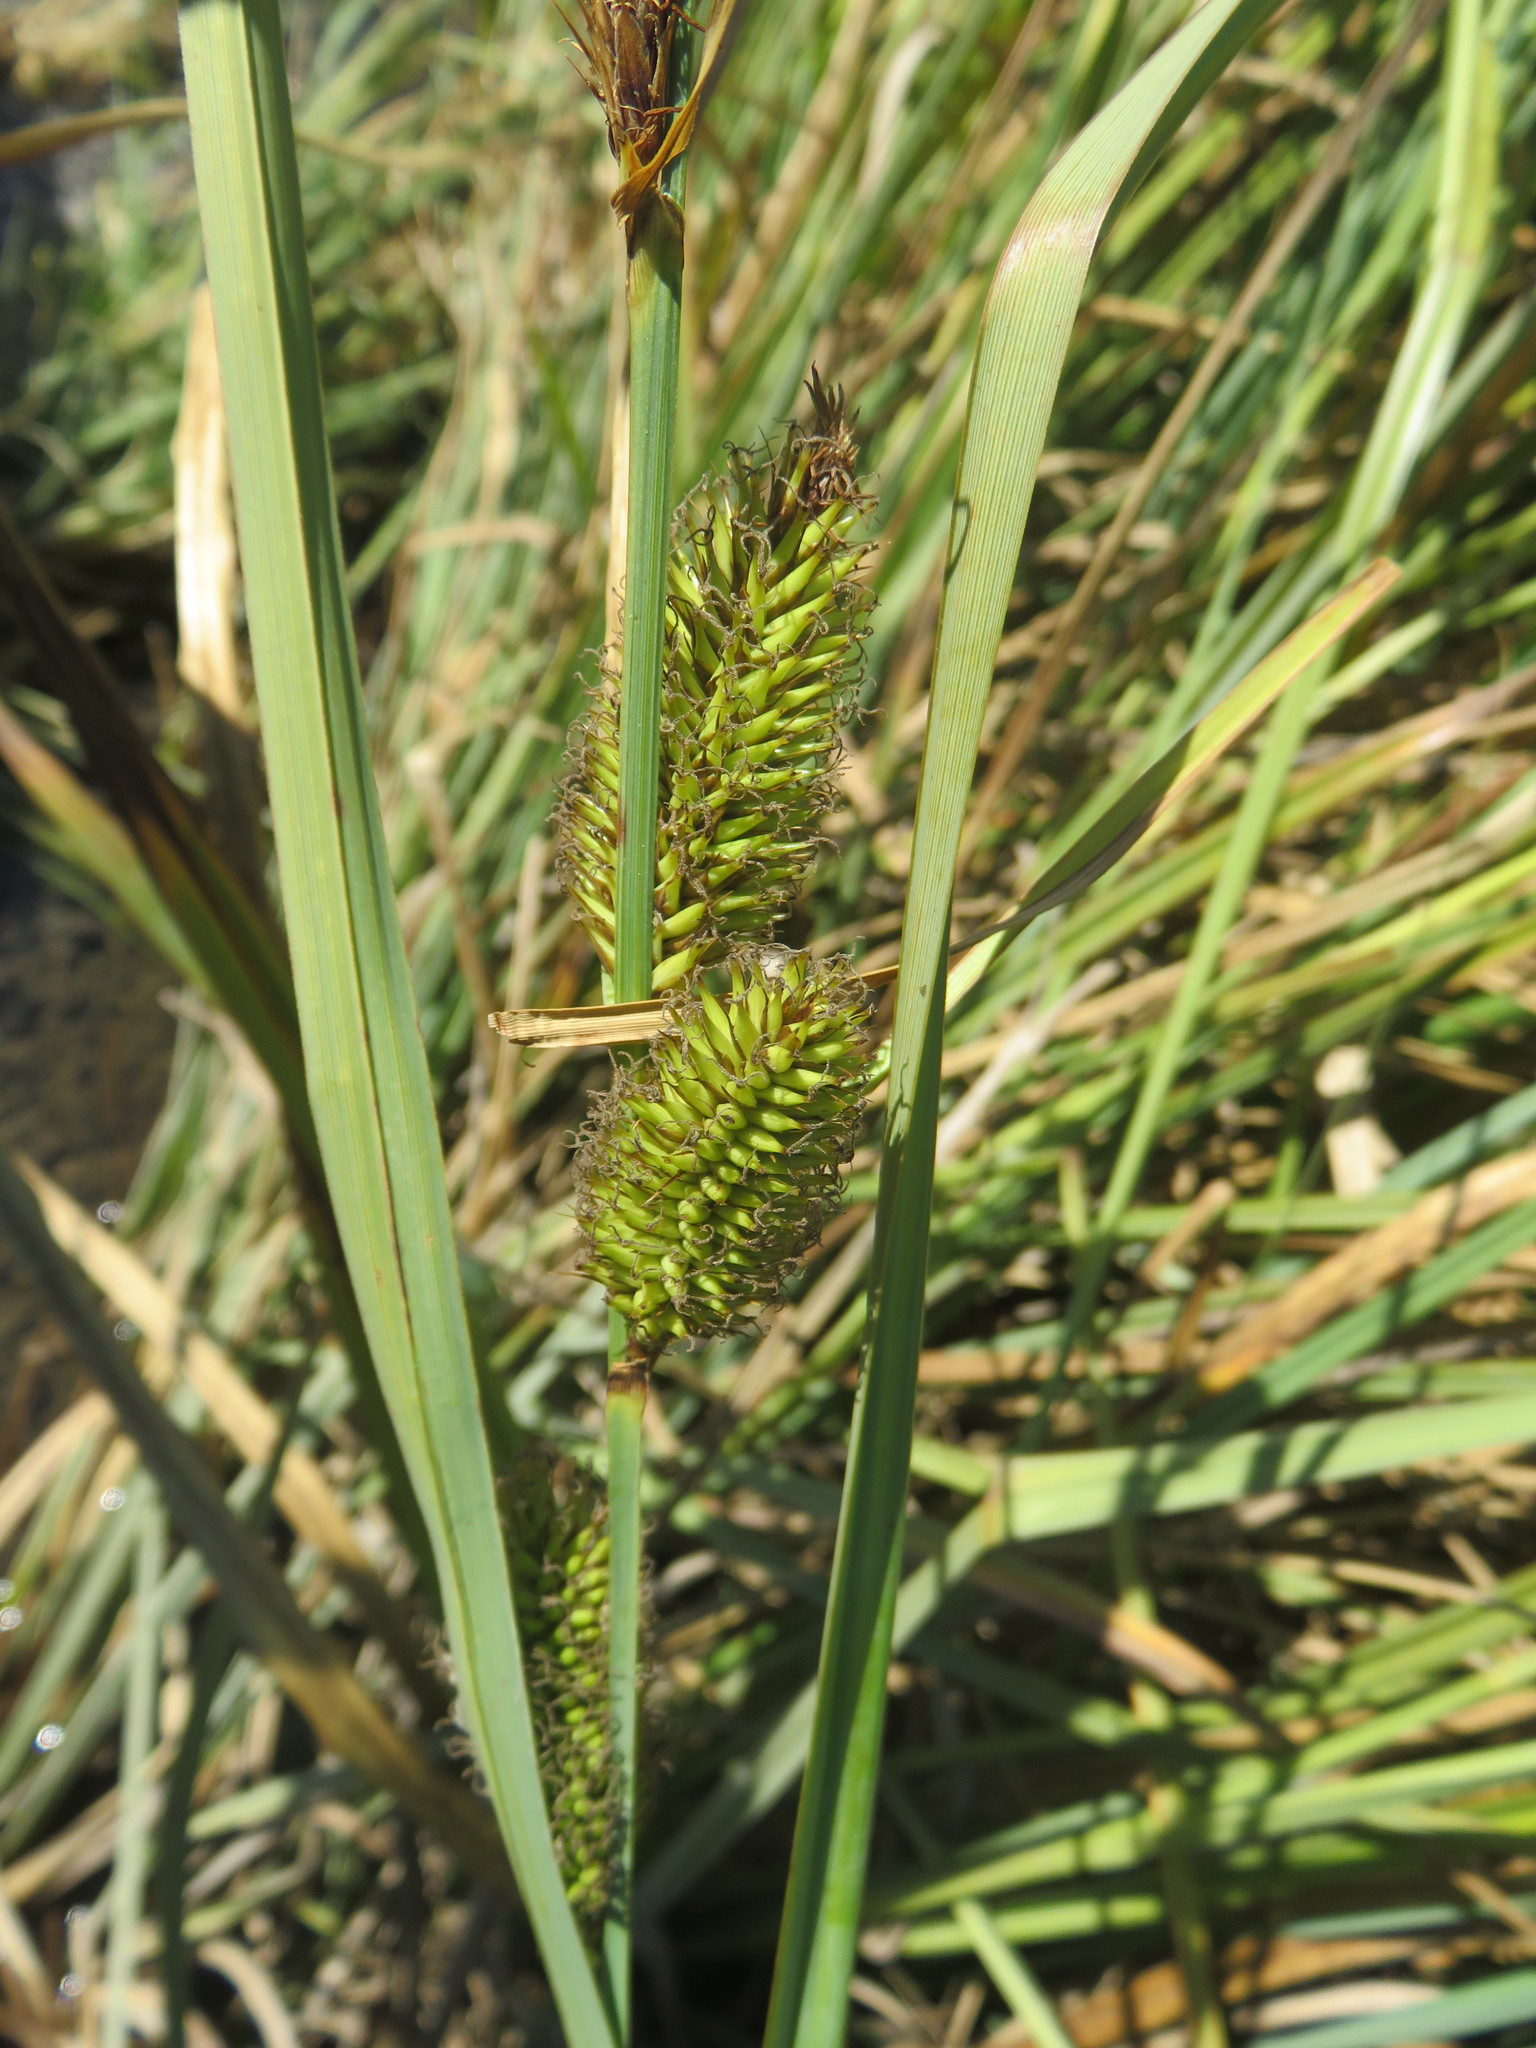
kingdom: Plantae
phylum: Tracheophyta
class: Liliopsida
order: Poales
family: Cyperaceae
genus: Carex
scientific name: Carex chilensis
